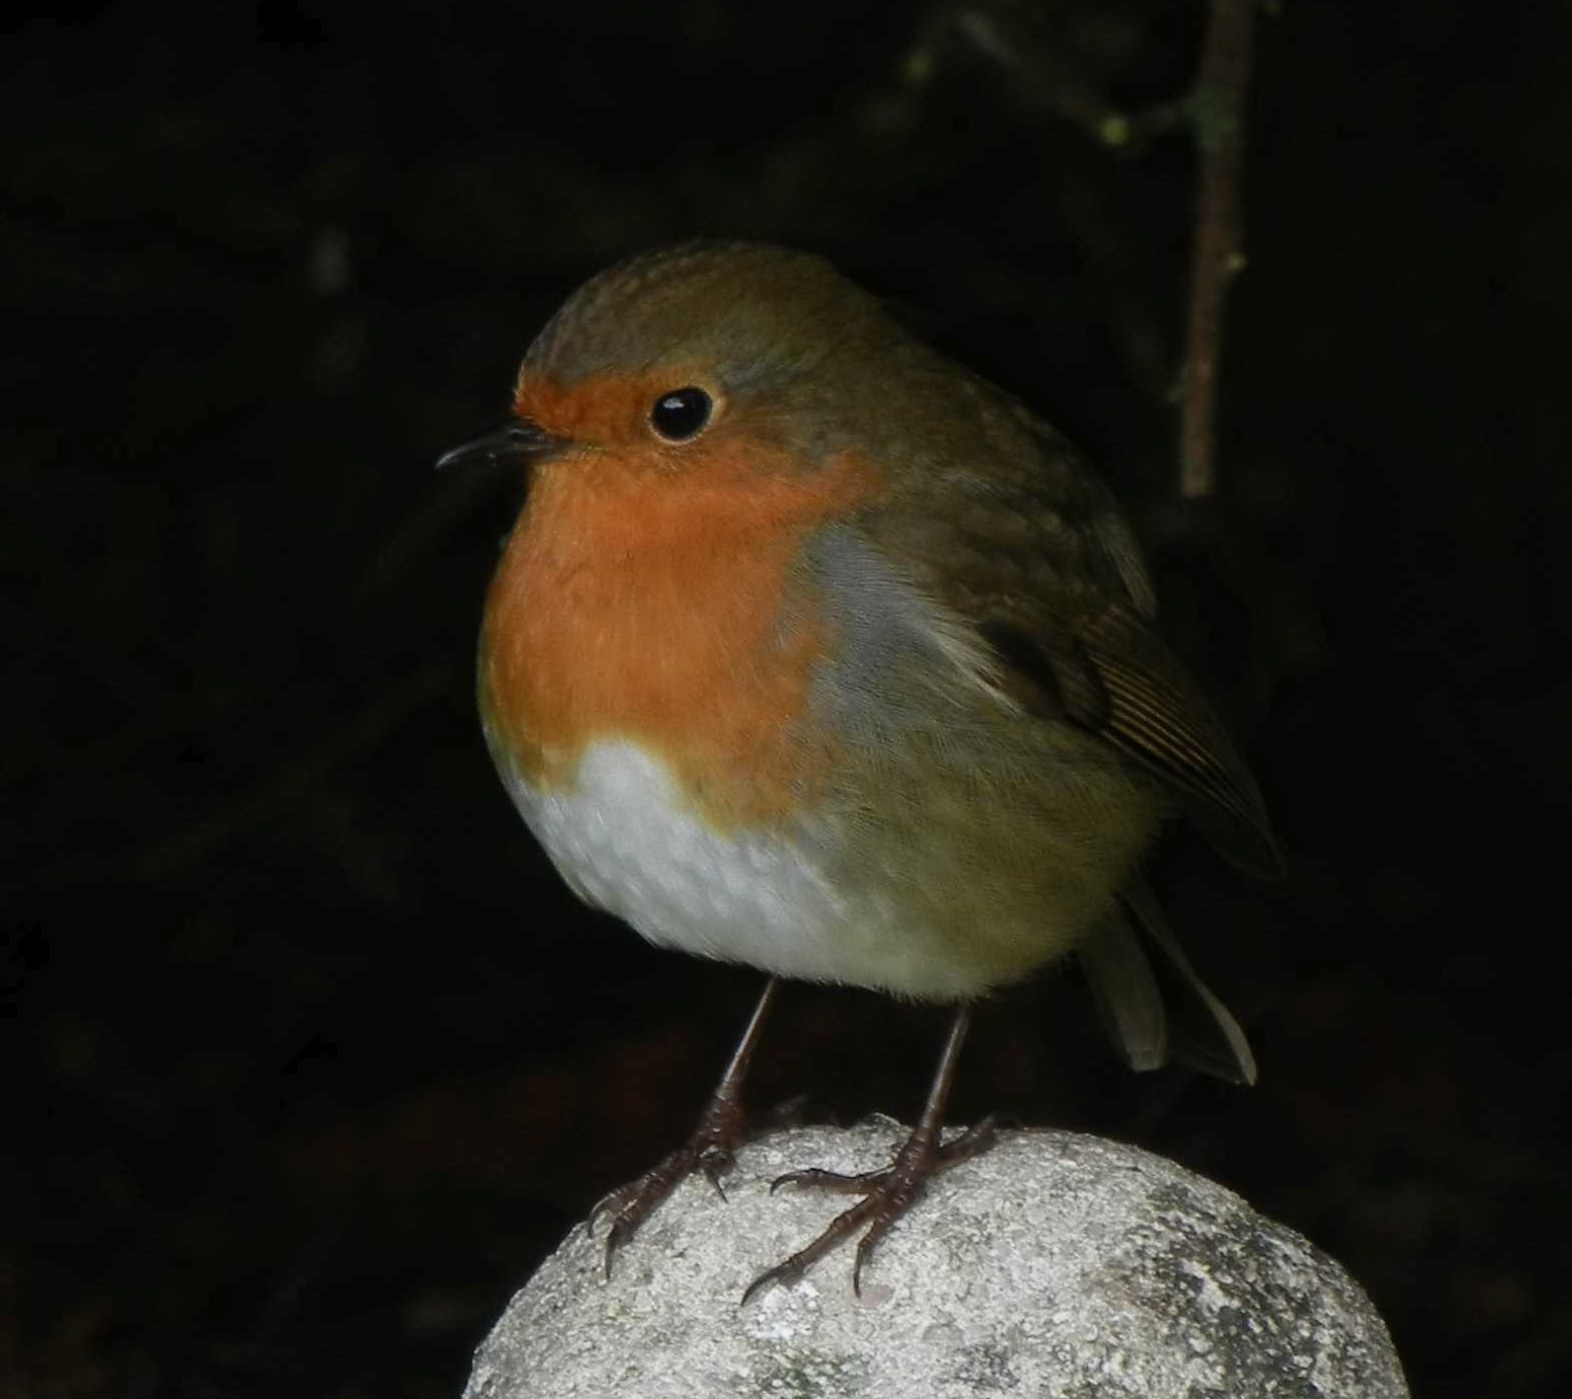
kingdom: Animalia
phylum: Chordata
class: Aves
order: Passeriformes
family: Muscicapidae
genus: Erithacus
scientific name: Erithacus rubecula
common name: European robin
